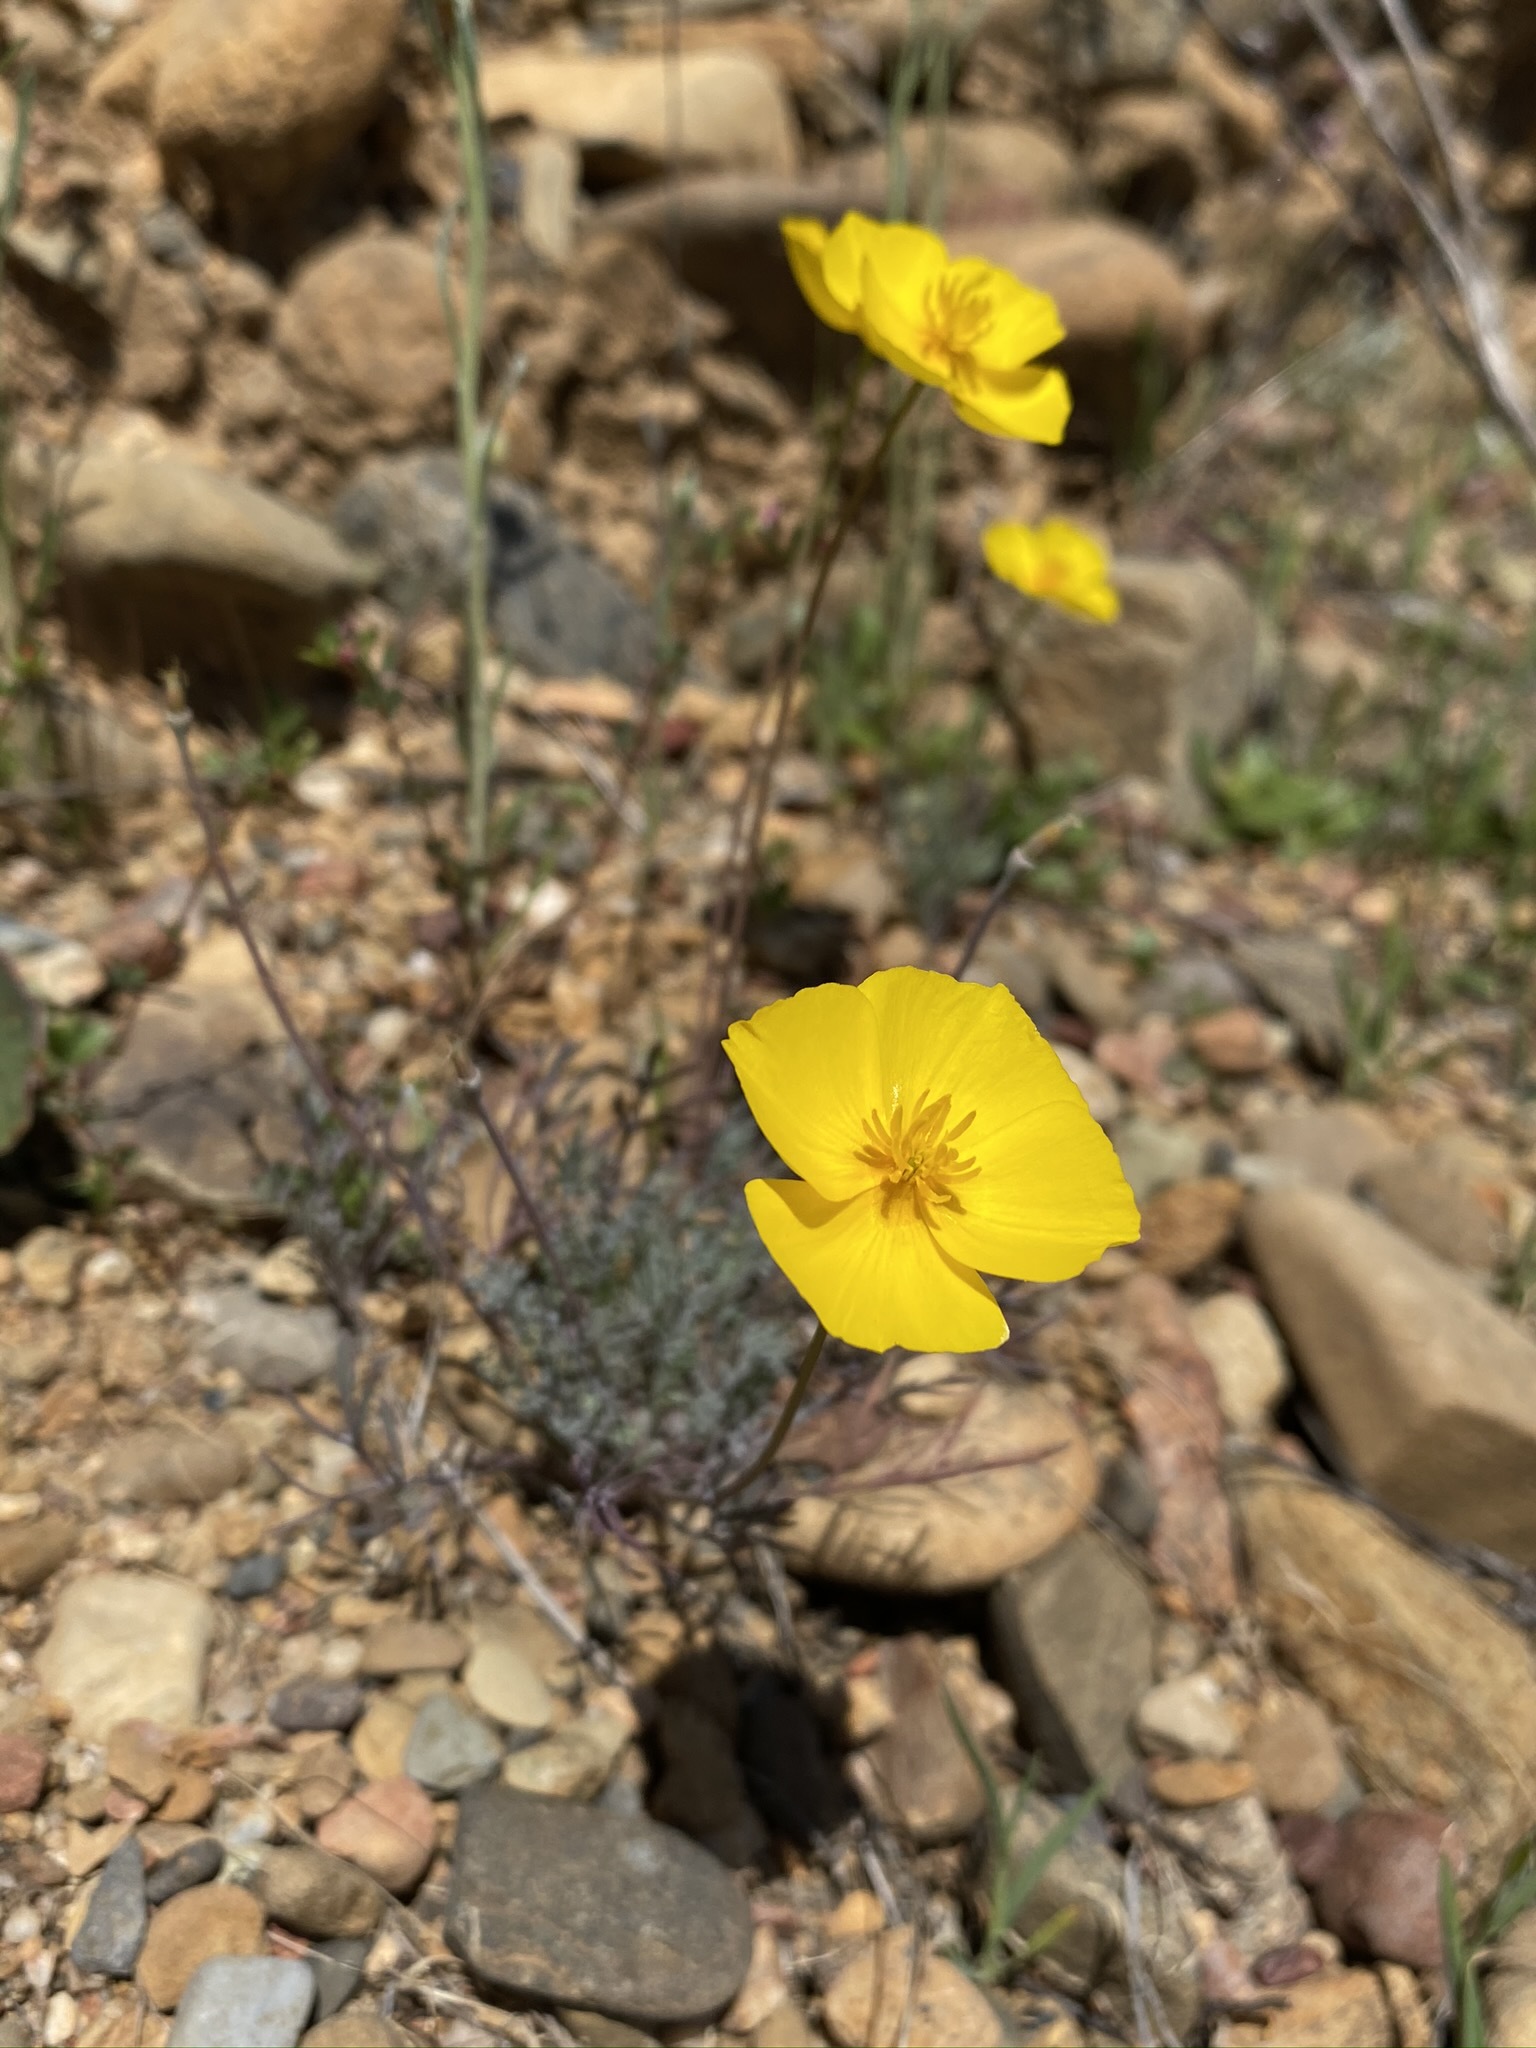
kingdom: Plantae
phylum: Tracheophyta
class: Magnoliopsida
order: Ranunculales
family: Papaveraceae
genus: Eschscholzia
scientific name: Eschscholzia lobbii
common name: Frying-pans
